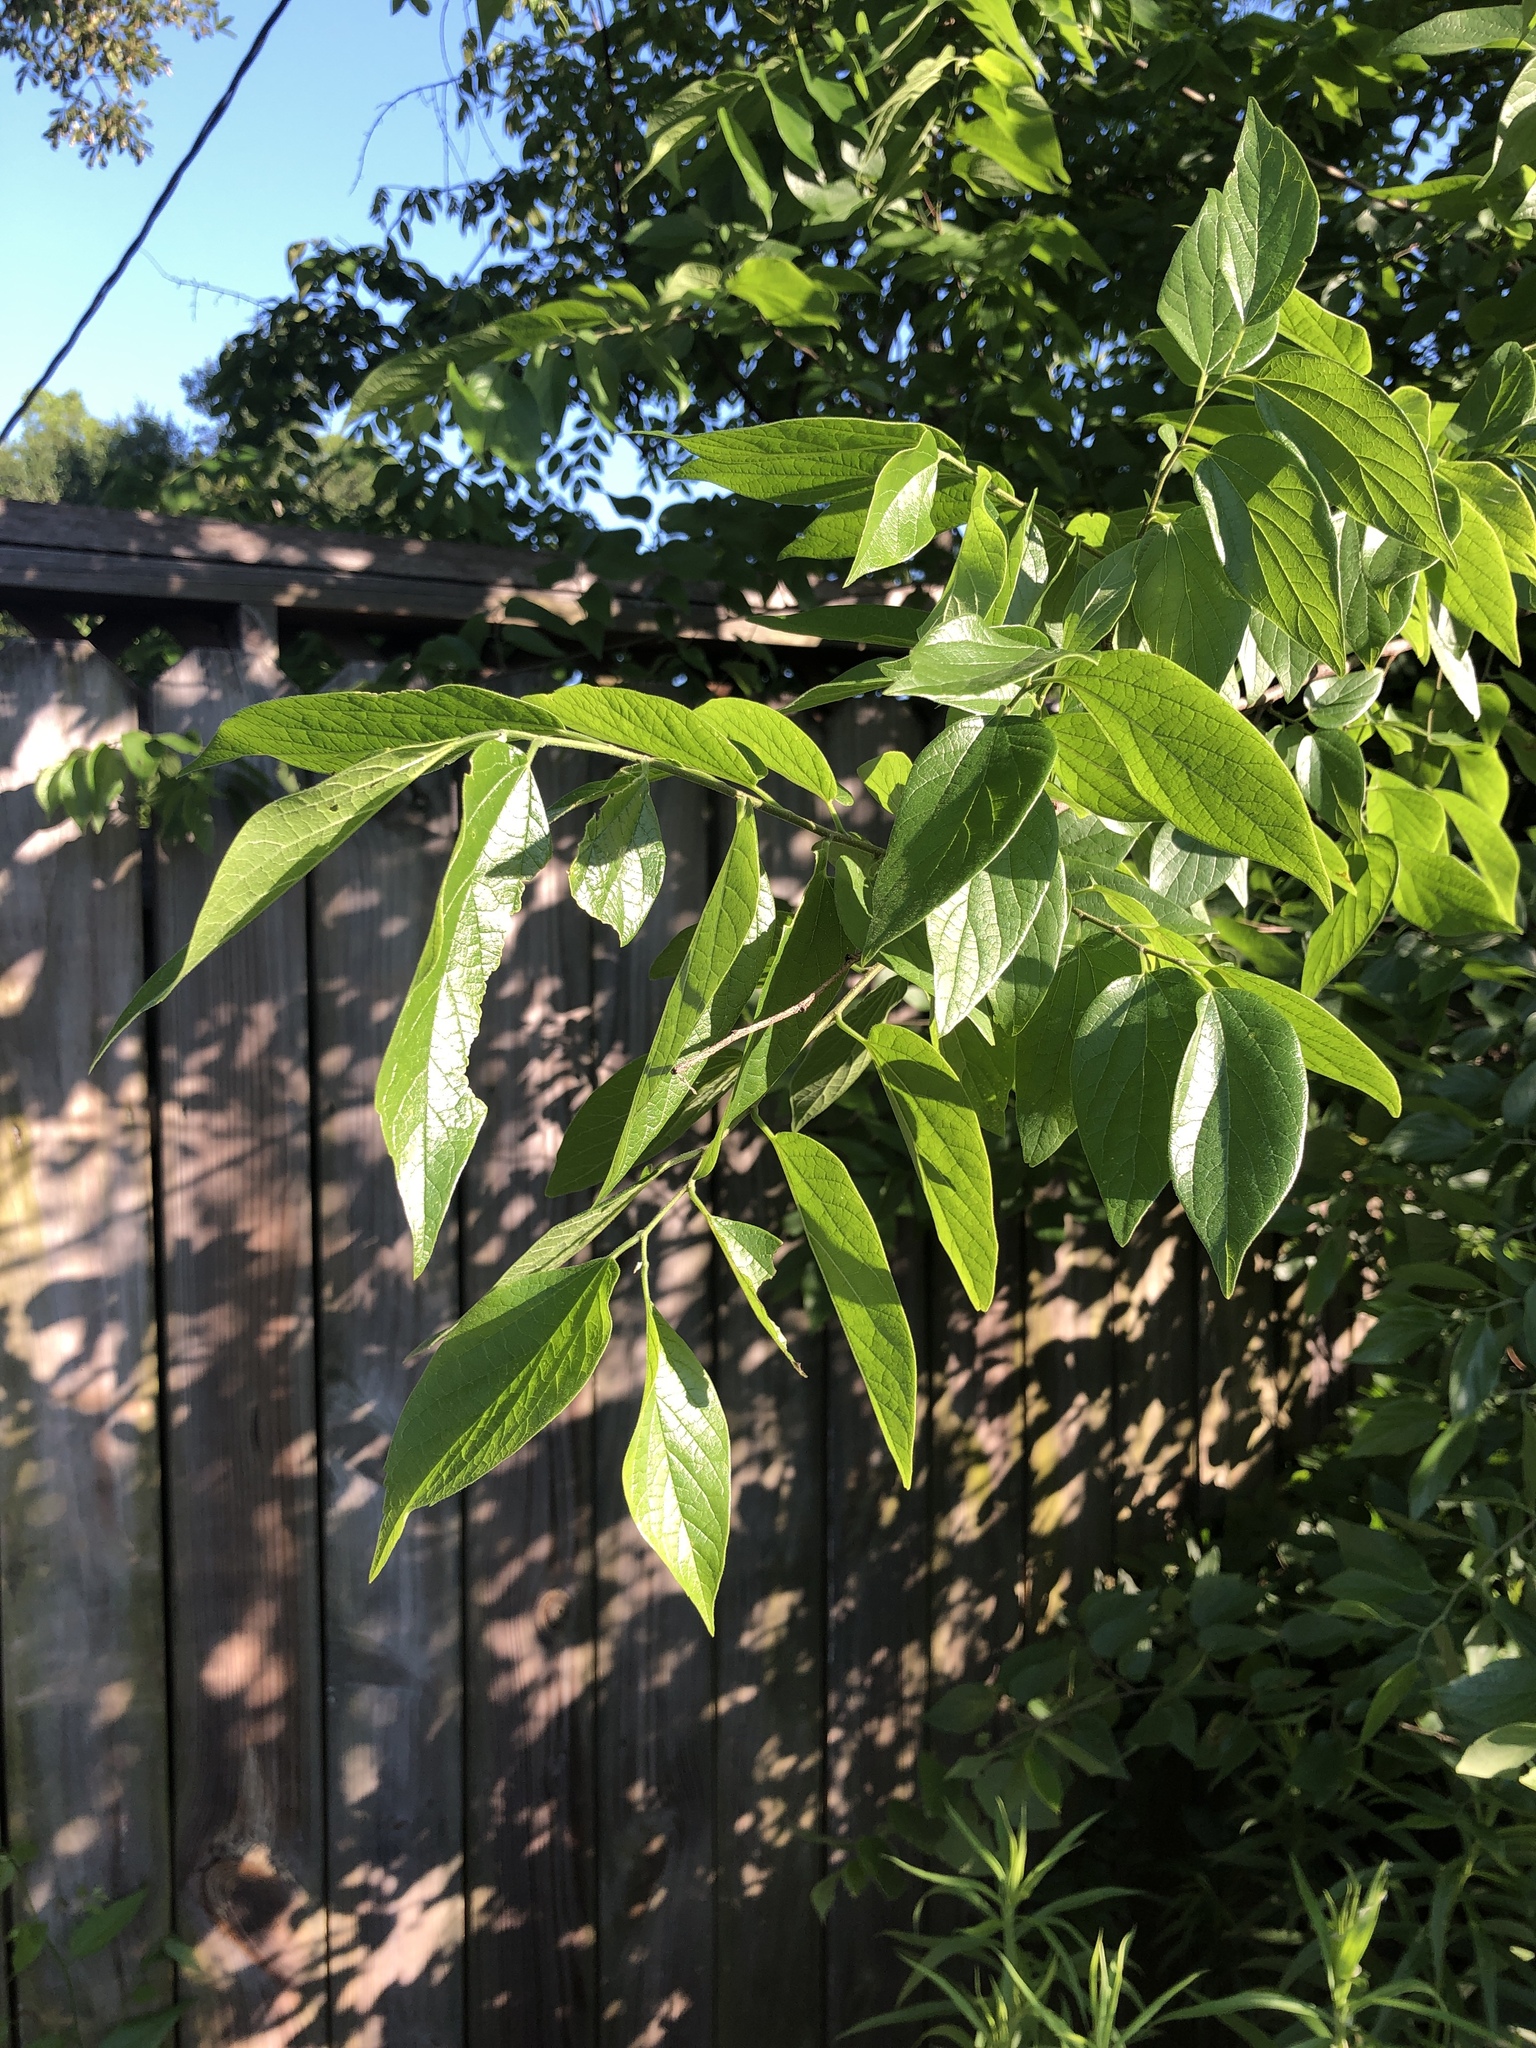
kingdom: Plantae
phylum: Tracheophyta
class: Magnoliopsida
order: Rosales
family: Cannabaceae
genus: Celtis
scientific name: Celtis laevigata
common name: Sugarberry
